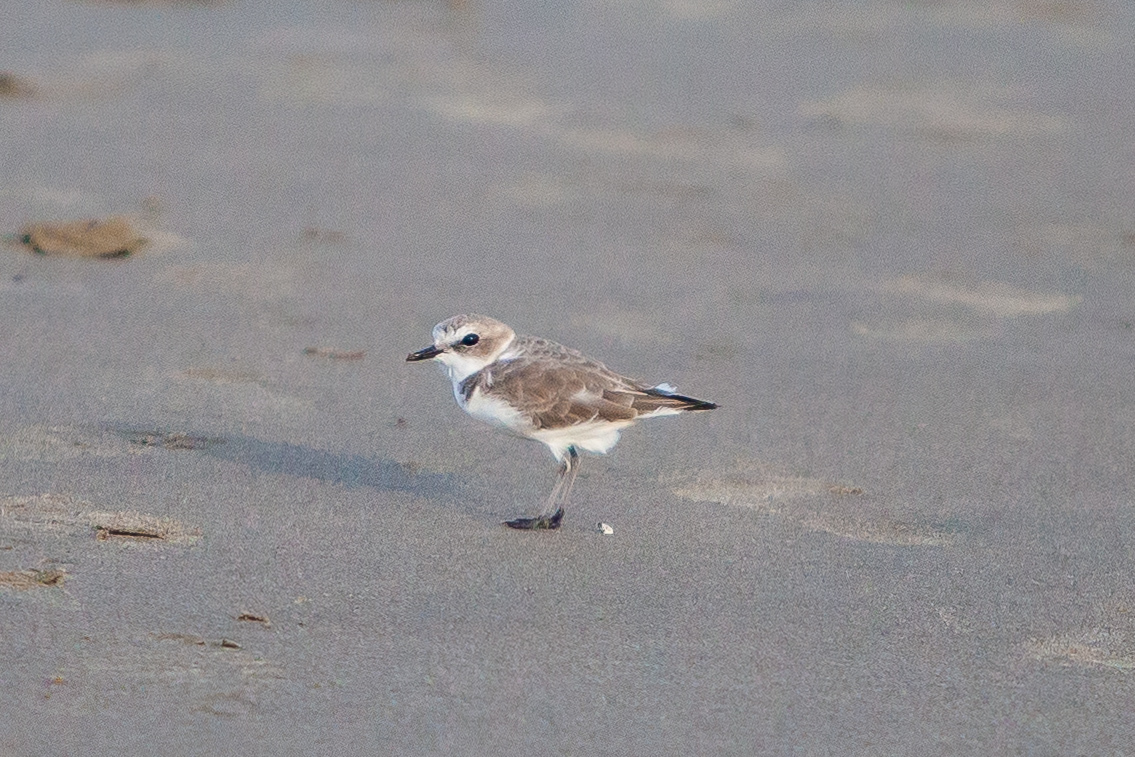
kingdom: Animalia
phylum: Chordata
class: Aves
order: Charadriiformes
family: Charadriidae
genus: Anarhynchus
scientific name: Anarhynchus
